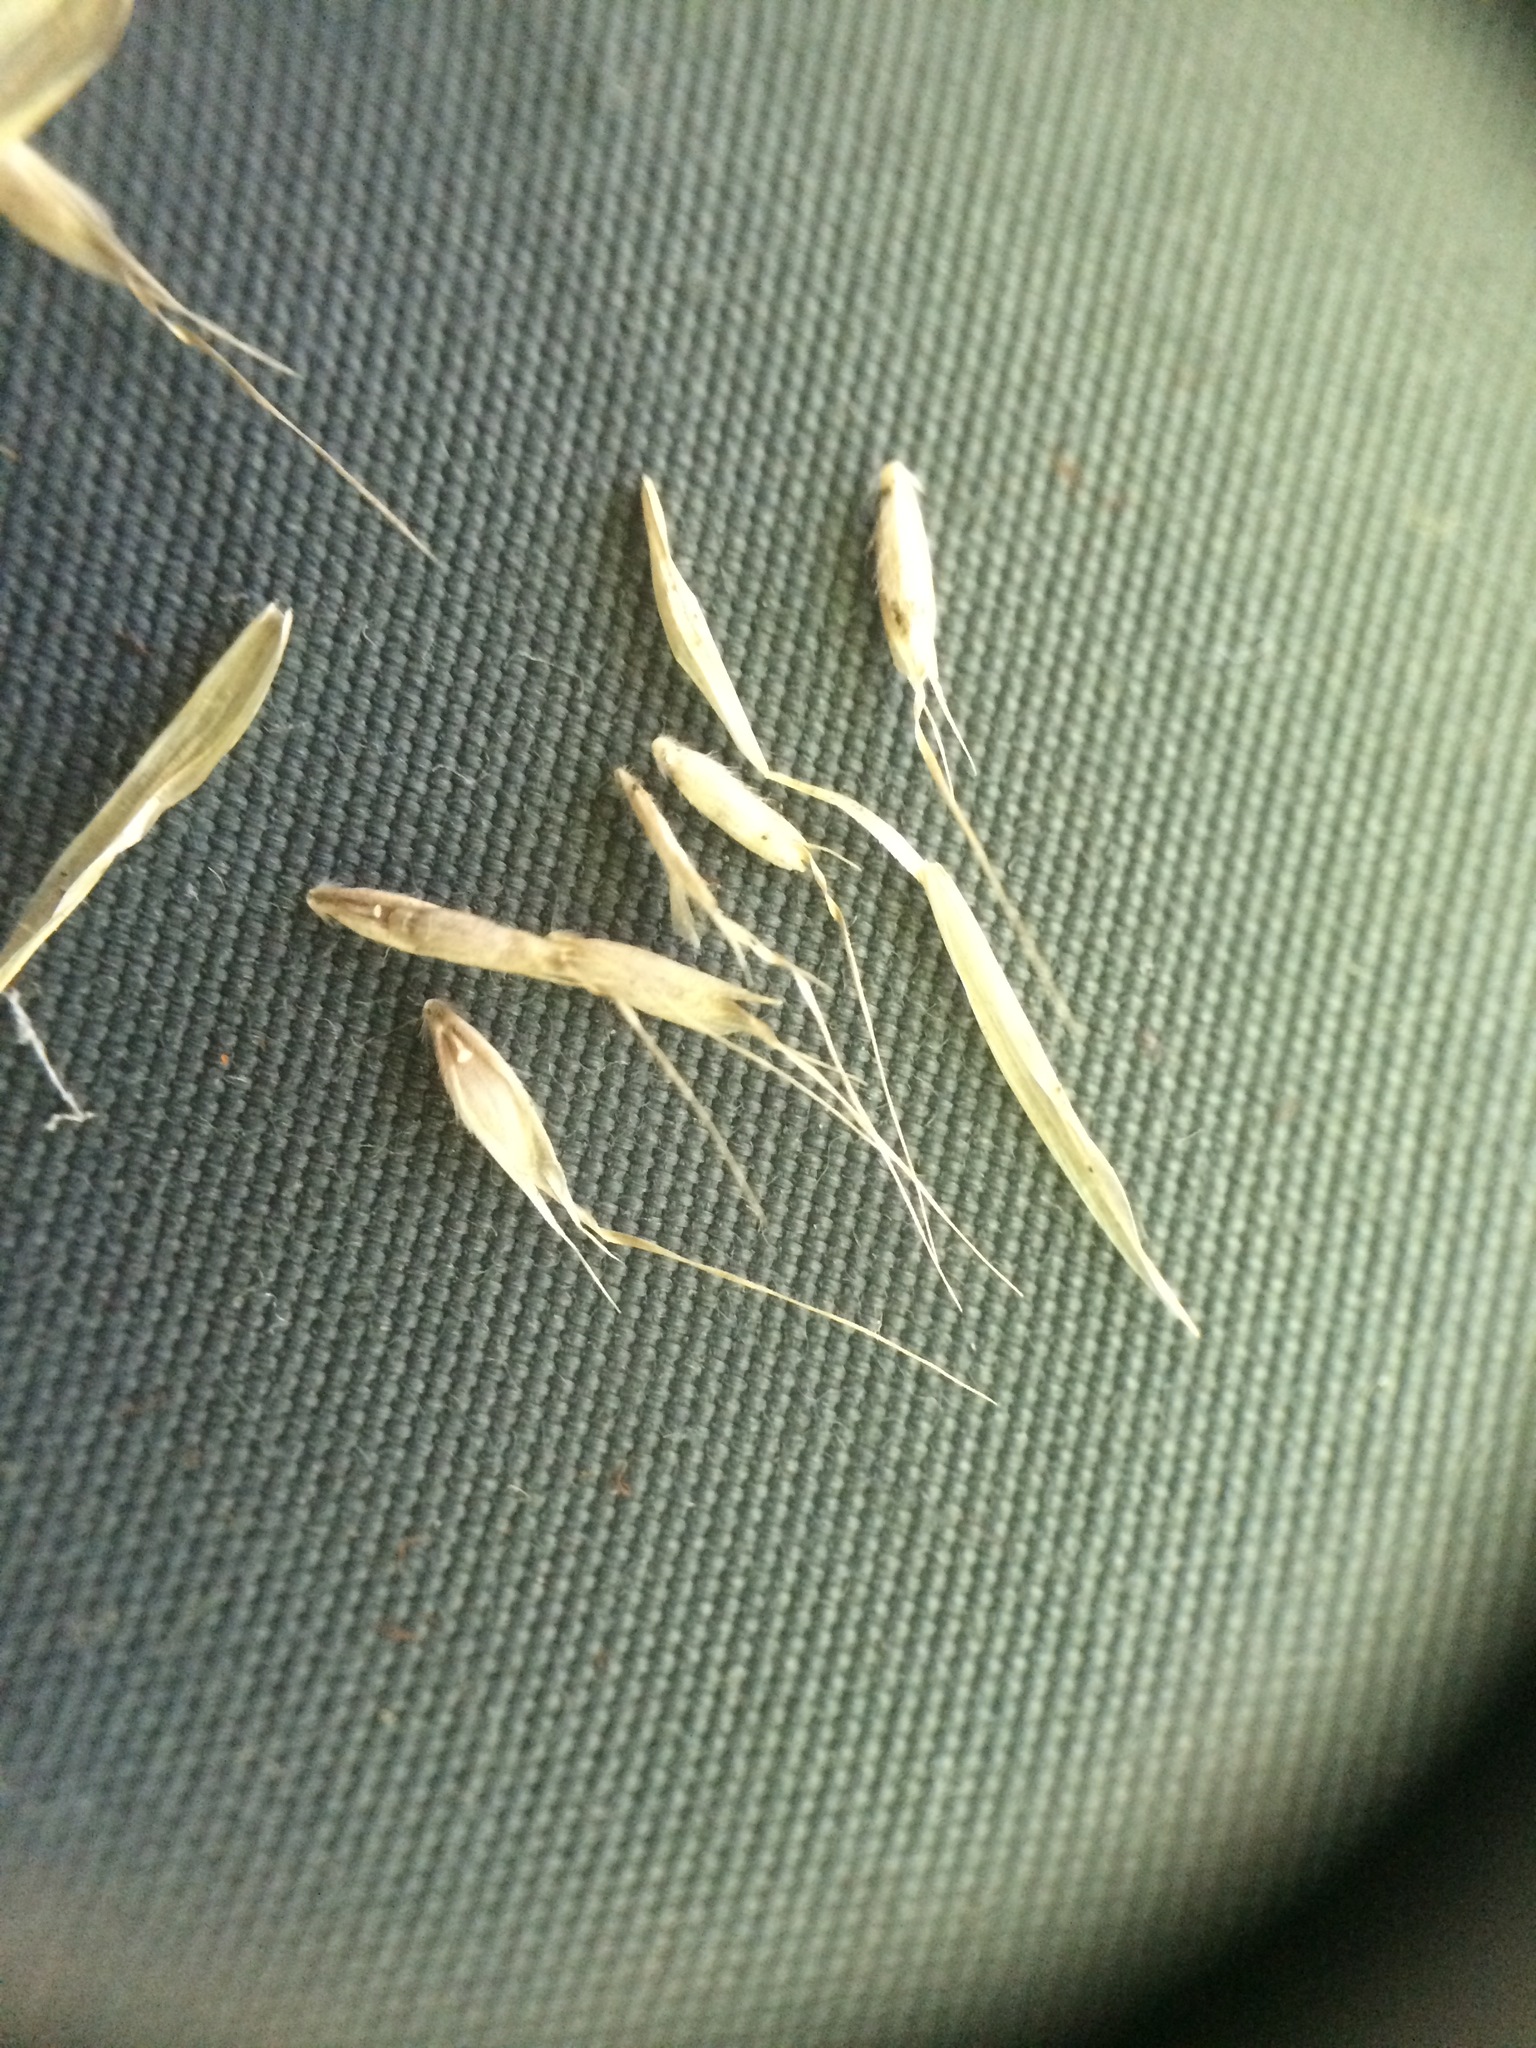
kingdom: Plantae
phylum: Tracheophyta
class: Liliopsida
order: Poales
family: Poaceae
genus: Danthonia
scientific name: Danthonia compressa
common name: Flat-stem oat grass
